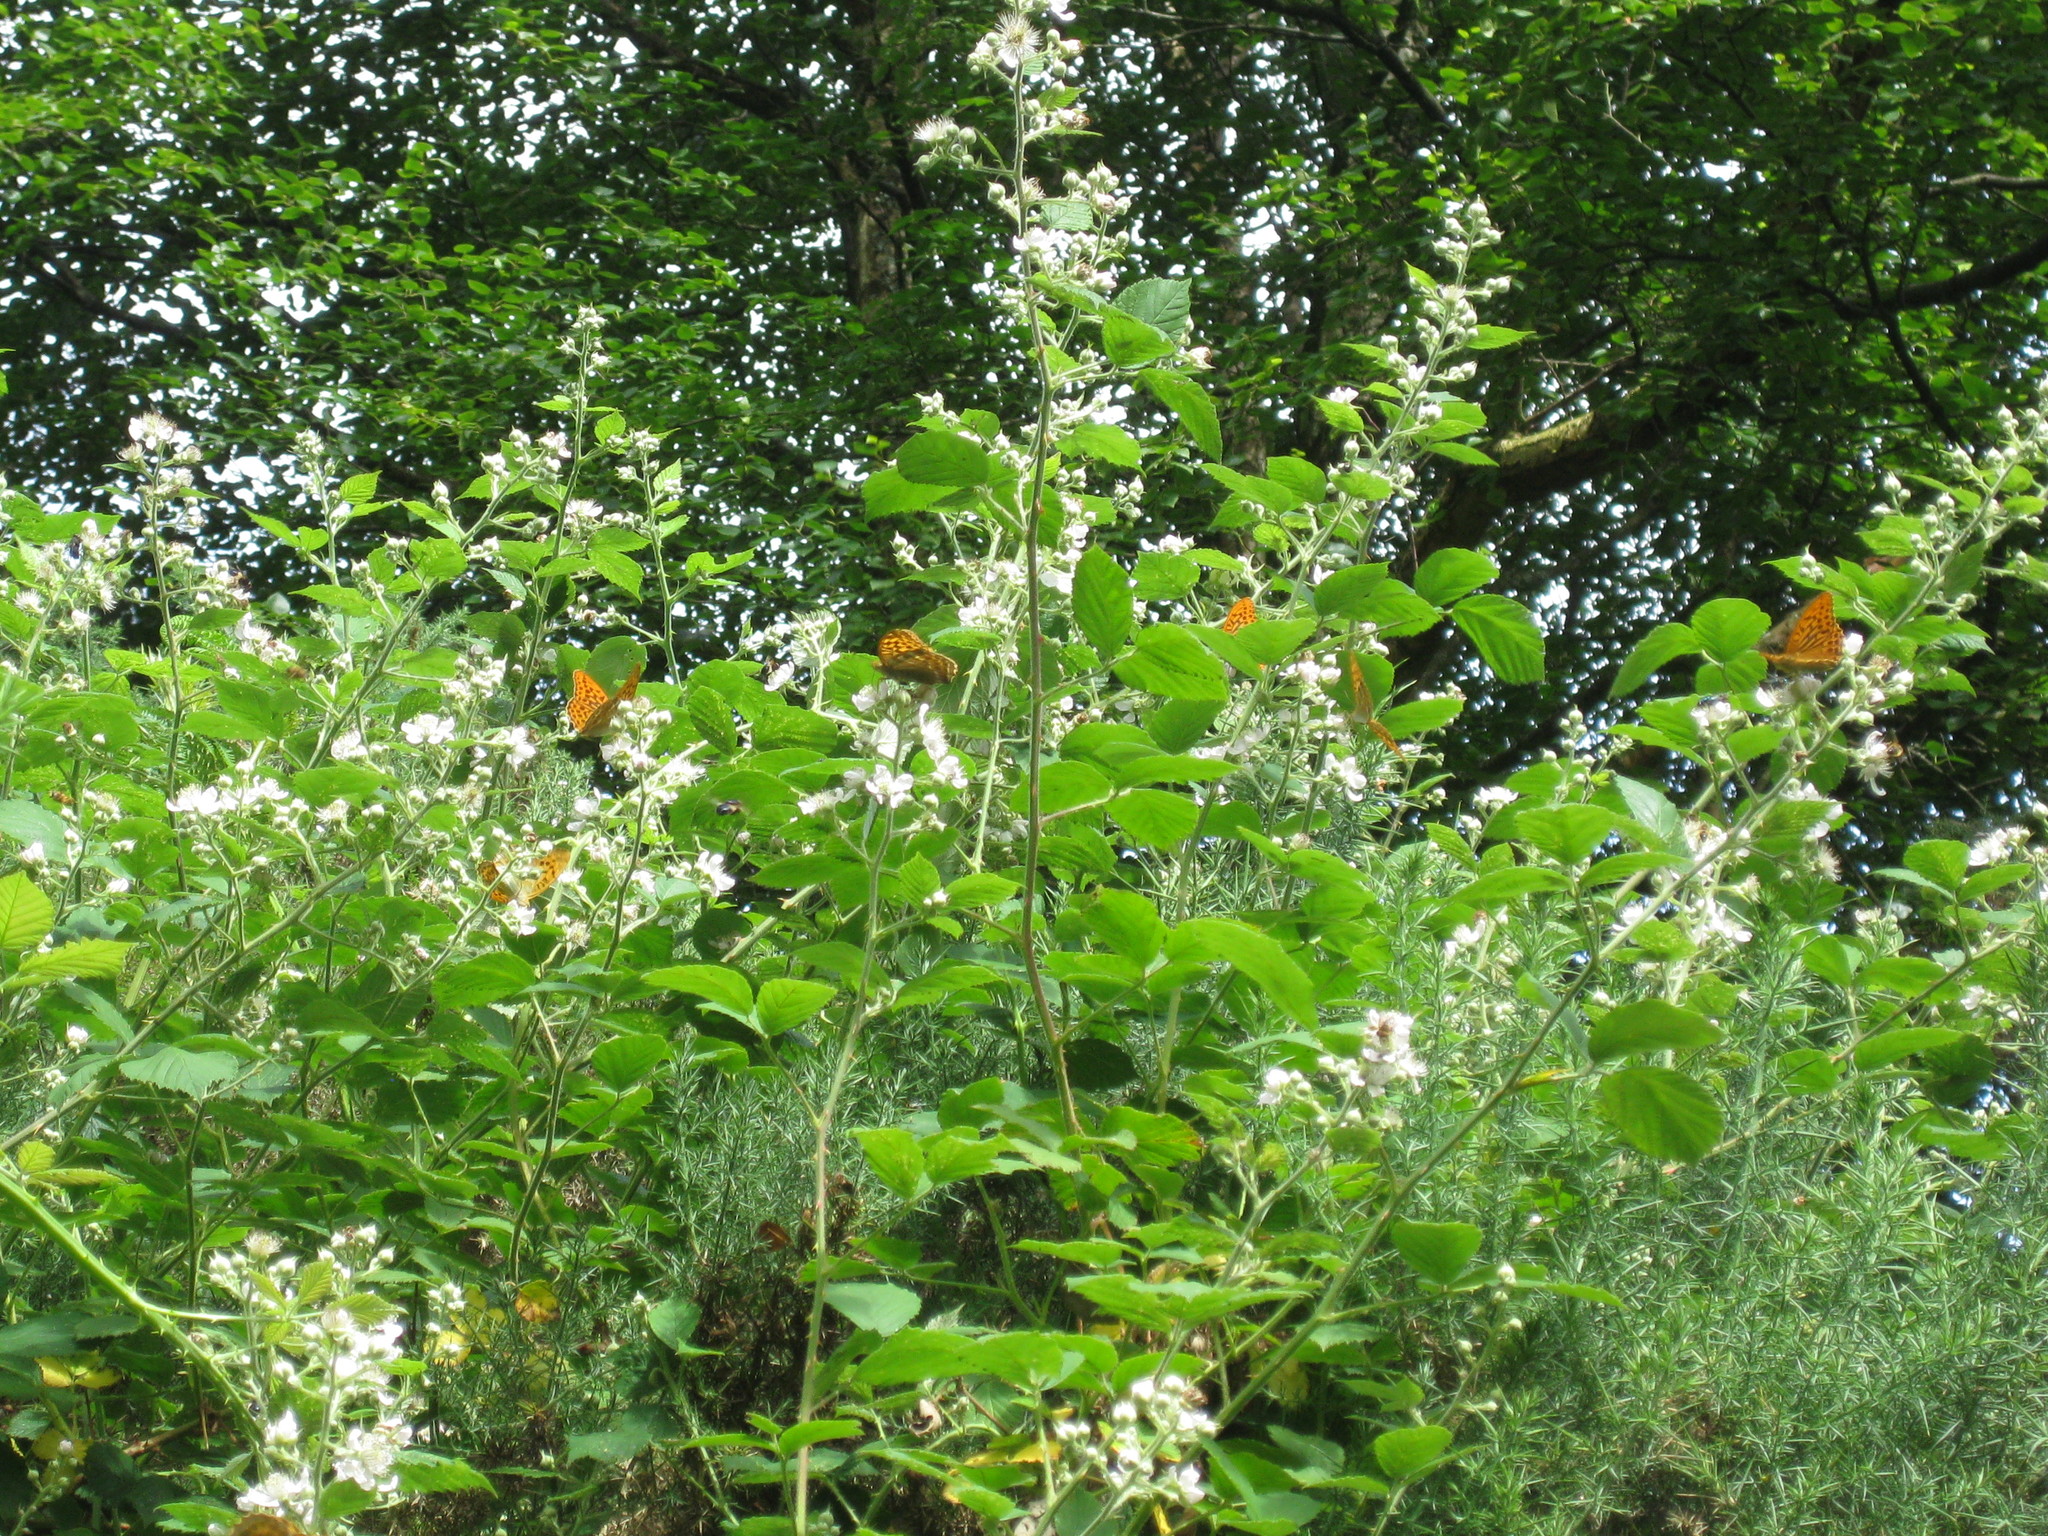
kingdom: Animalia
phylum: Arthropoda
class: Insecta
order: Lepidoptera
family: Nymphalidae
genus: Argynnis
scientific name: Argynnis paphia
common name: Silver-washed fritillary
